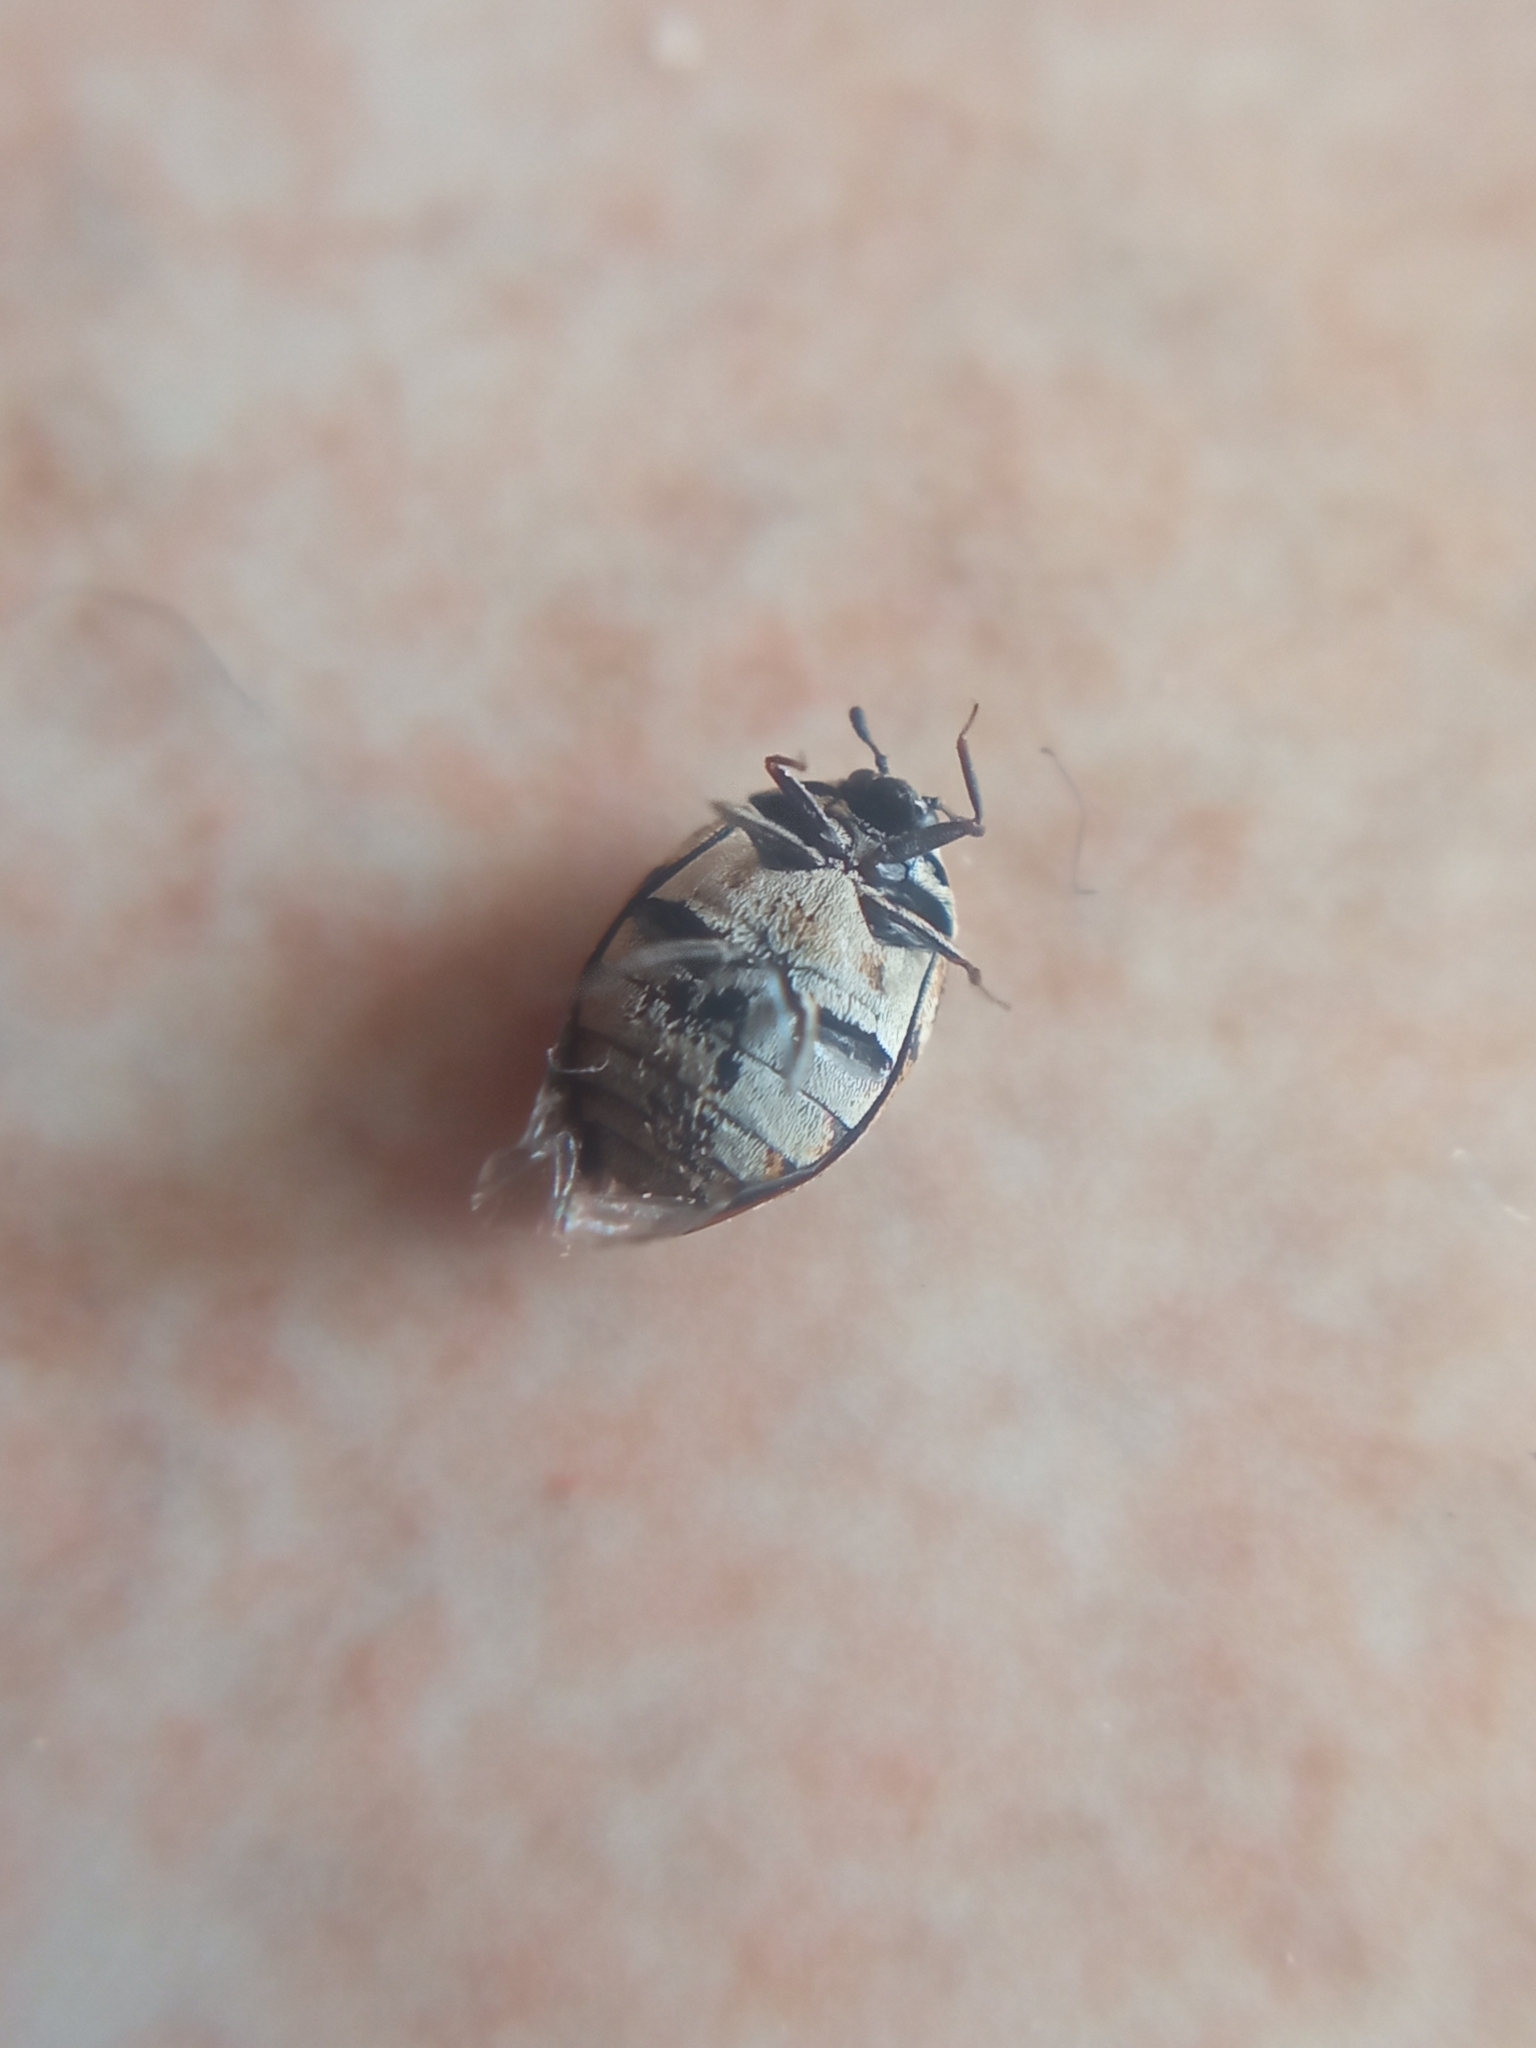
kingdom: Animalia
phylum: Arthropoda
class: Insecta
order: Coleoptera
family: Dermestidae
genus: Anthrenus
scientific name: Anthrenus verbasci
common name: Varied carpet beetle
